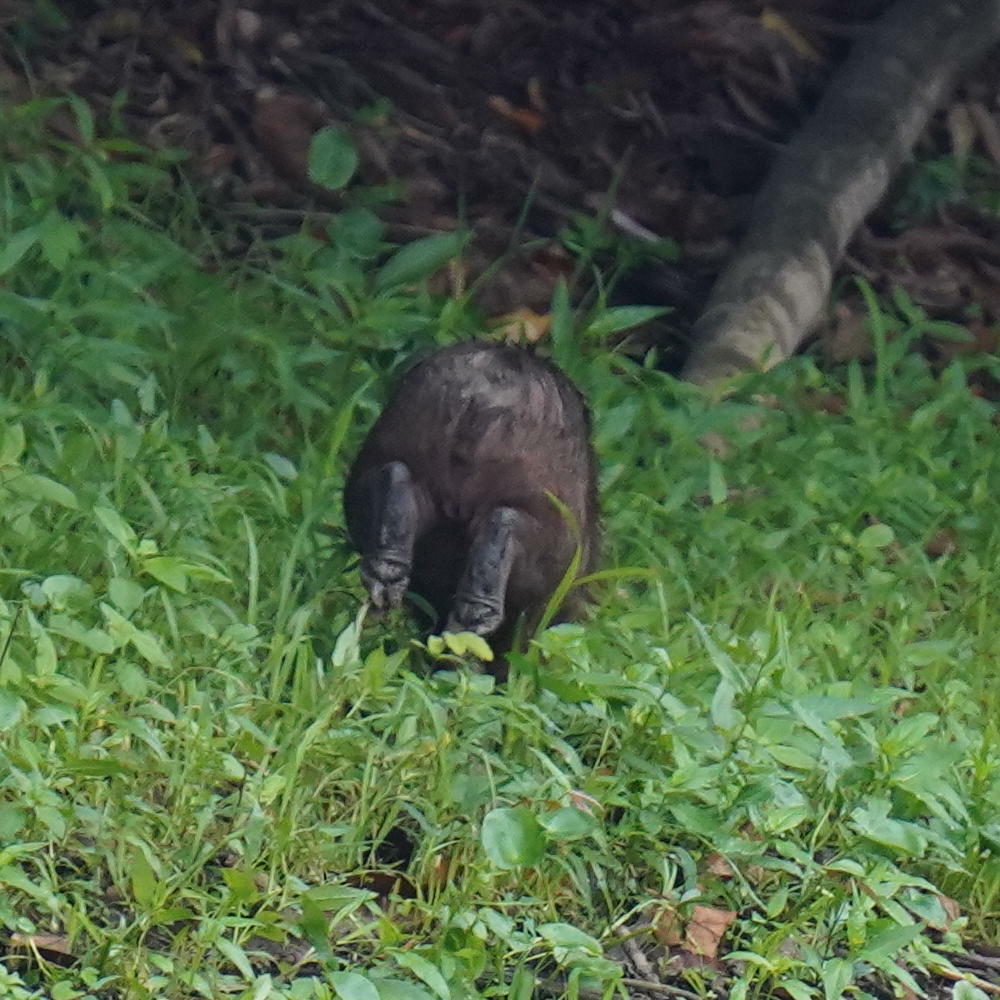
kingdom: Animalia
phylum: Chordata
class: Mammalia
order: Rodentia
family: Caviidae
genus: Hydrochoerus
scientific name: Hydrochoerus isthmius
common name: Lesser capybara
